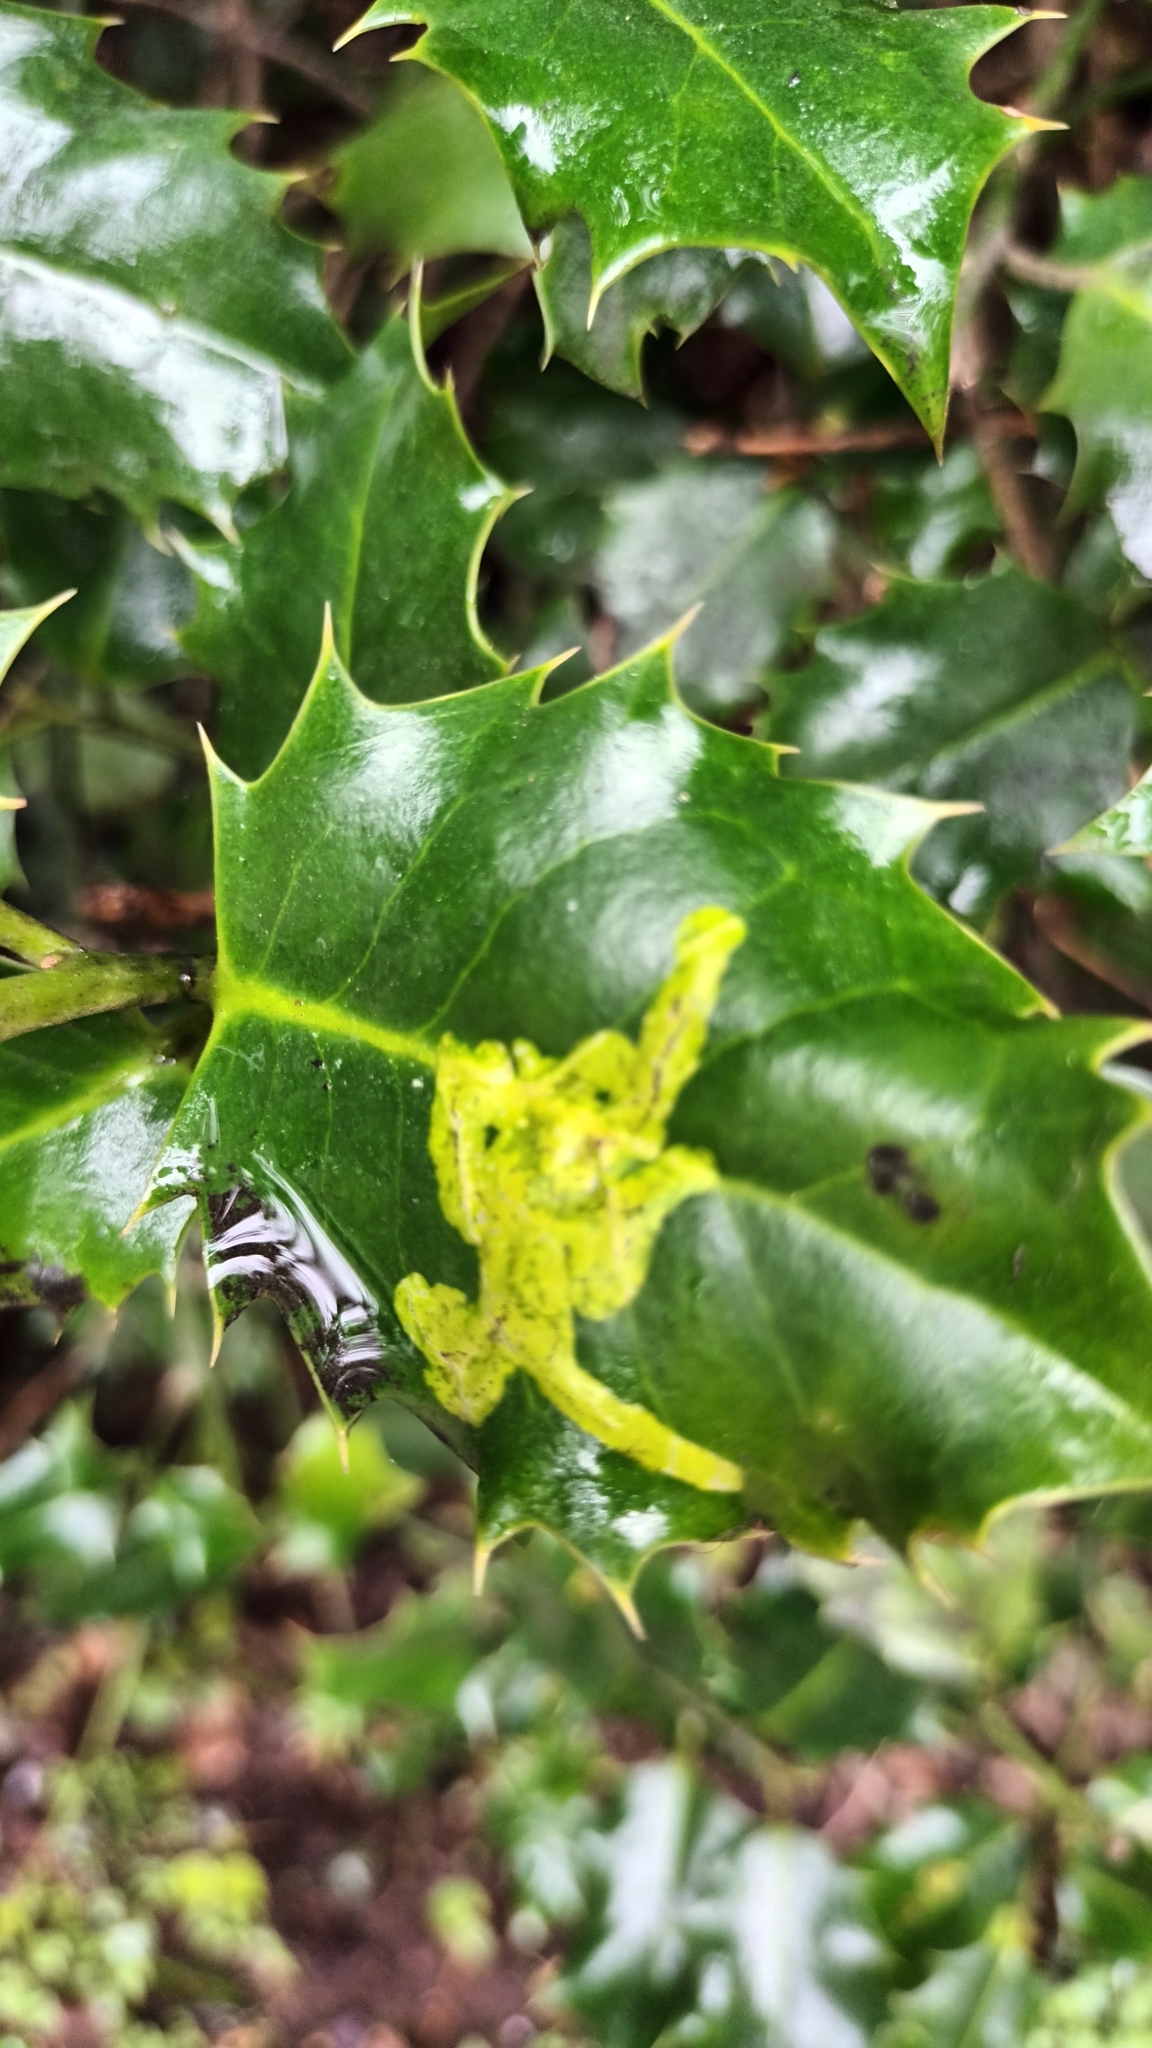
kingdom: Animalia
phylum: Arthropoda
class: Insecta
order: Diptera
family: Agromyzidae
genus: Phytomyza
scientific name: Phytomyza ilicis
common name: Holly leafminer
